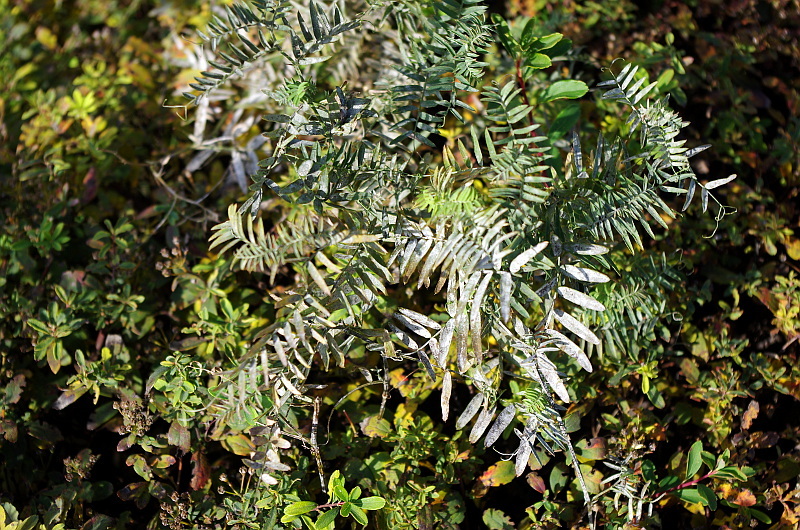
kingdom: Plantae
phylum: Tracheophyta
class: Magnoliopsida
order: Fabales
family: Fabaceae
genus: Vicia
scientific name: Vicia cracca
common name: Bird vetch
